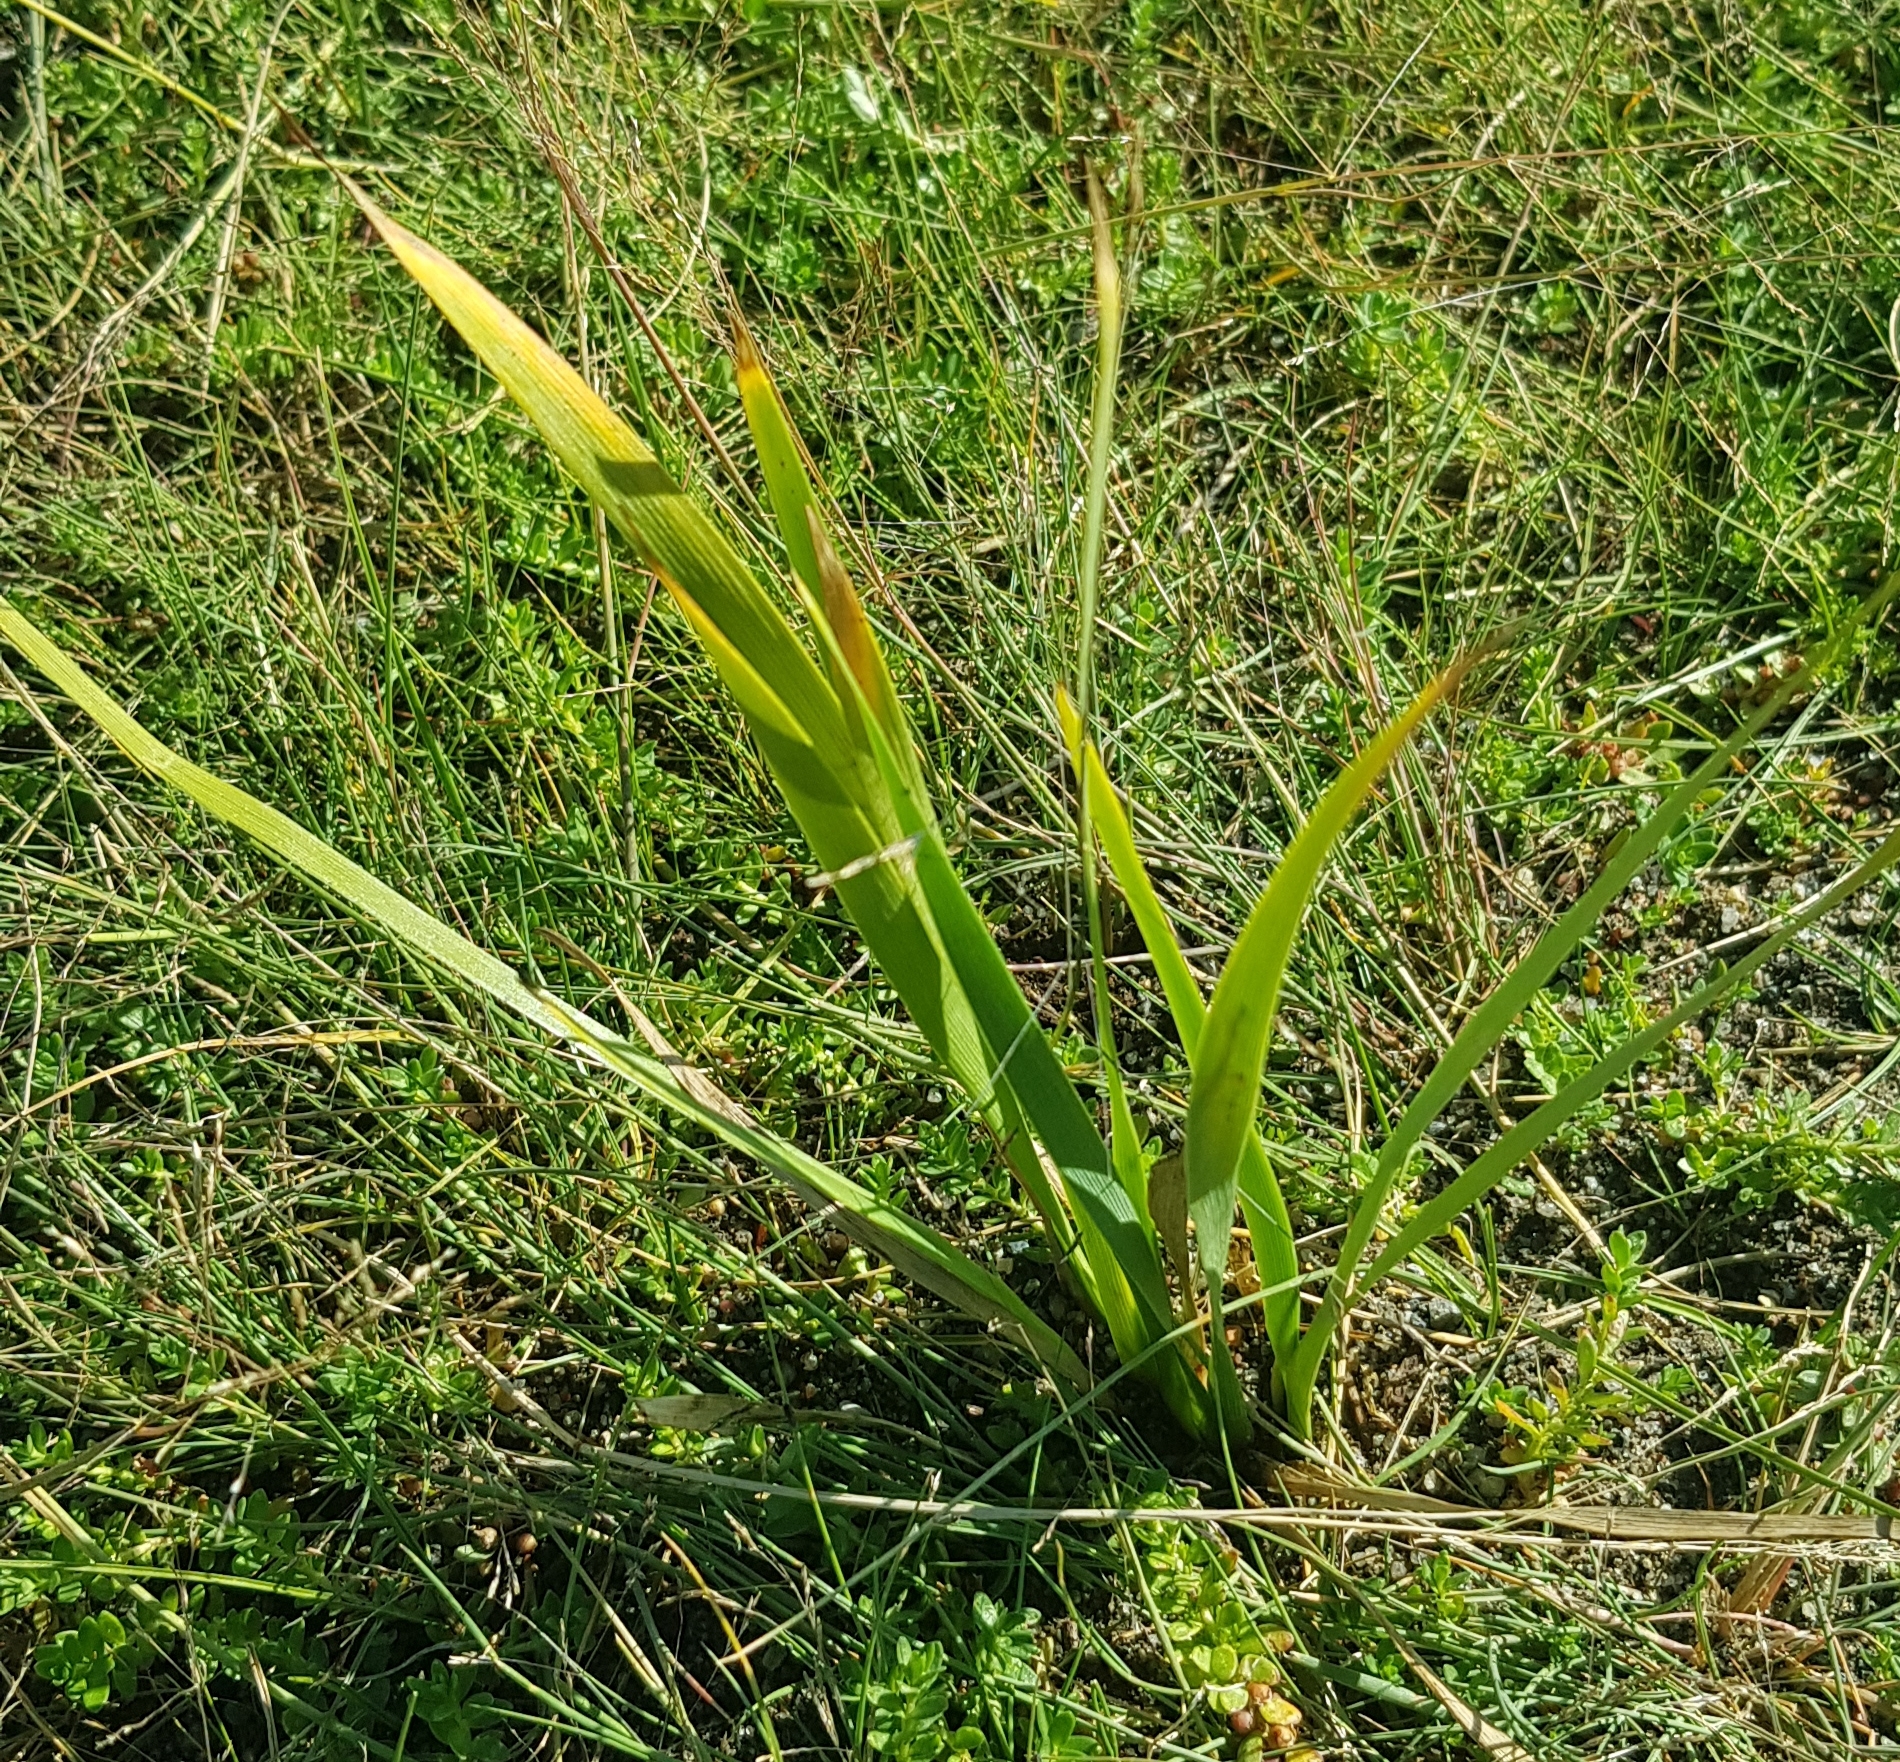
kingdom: Plantae
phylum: Tracheophyta
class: Liliopsida
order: Asparagales
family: Iridaceae
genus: Iris
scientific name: Iris humilis
